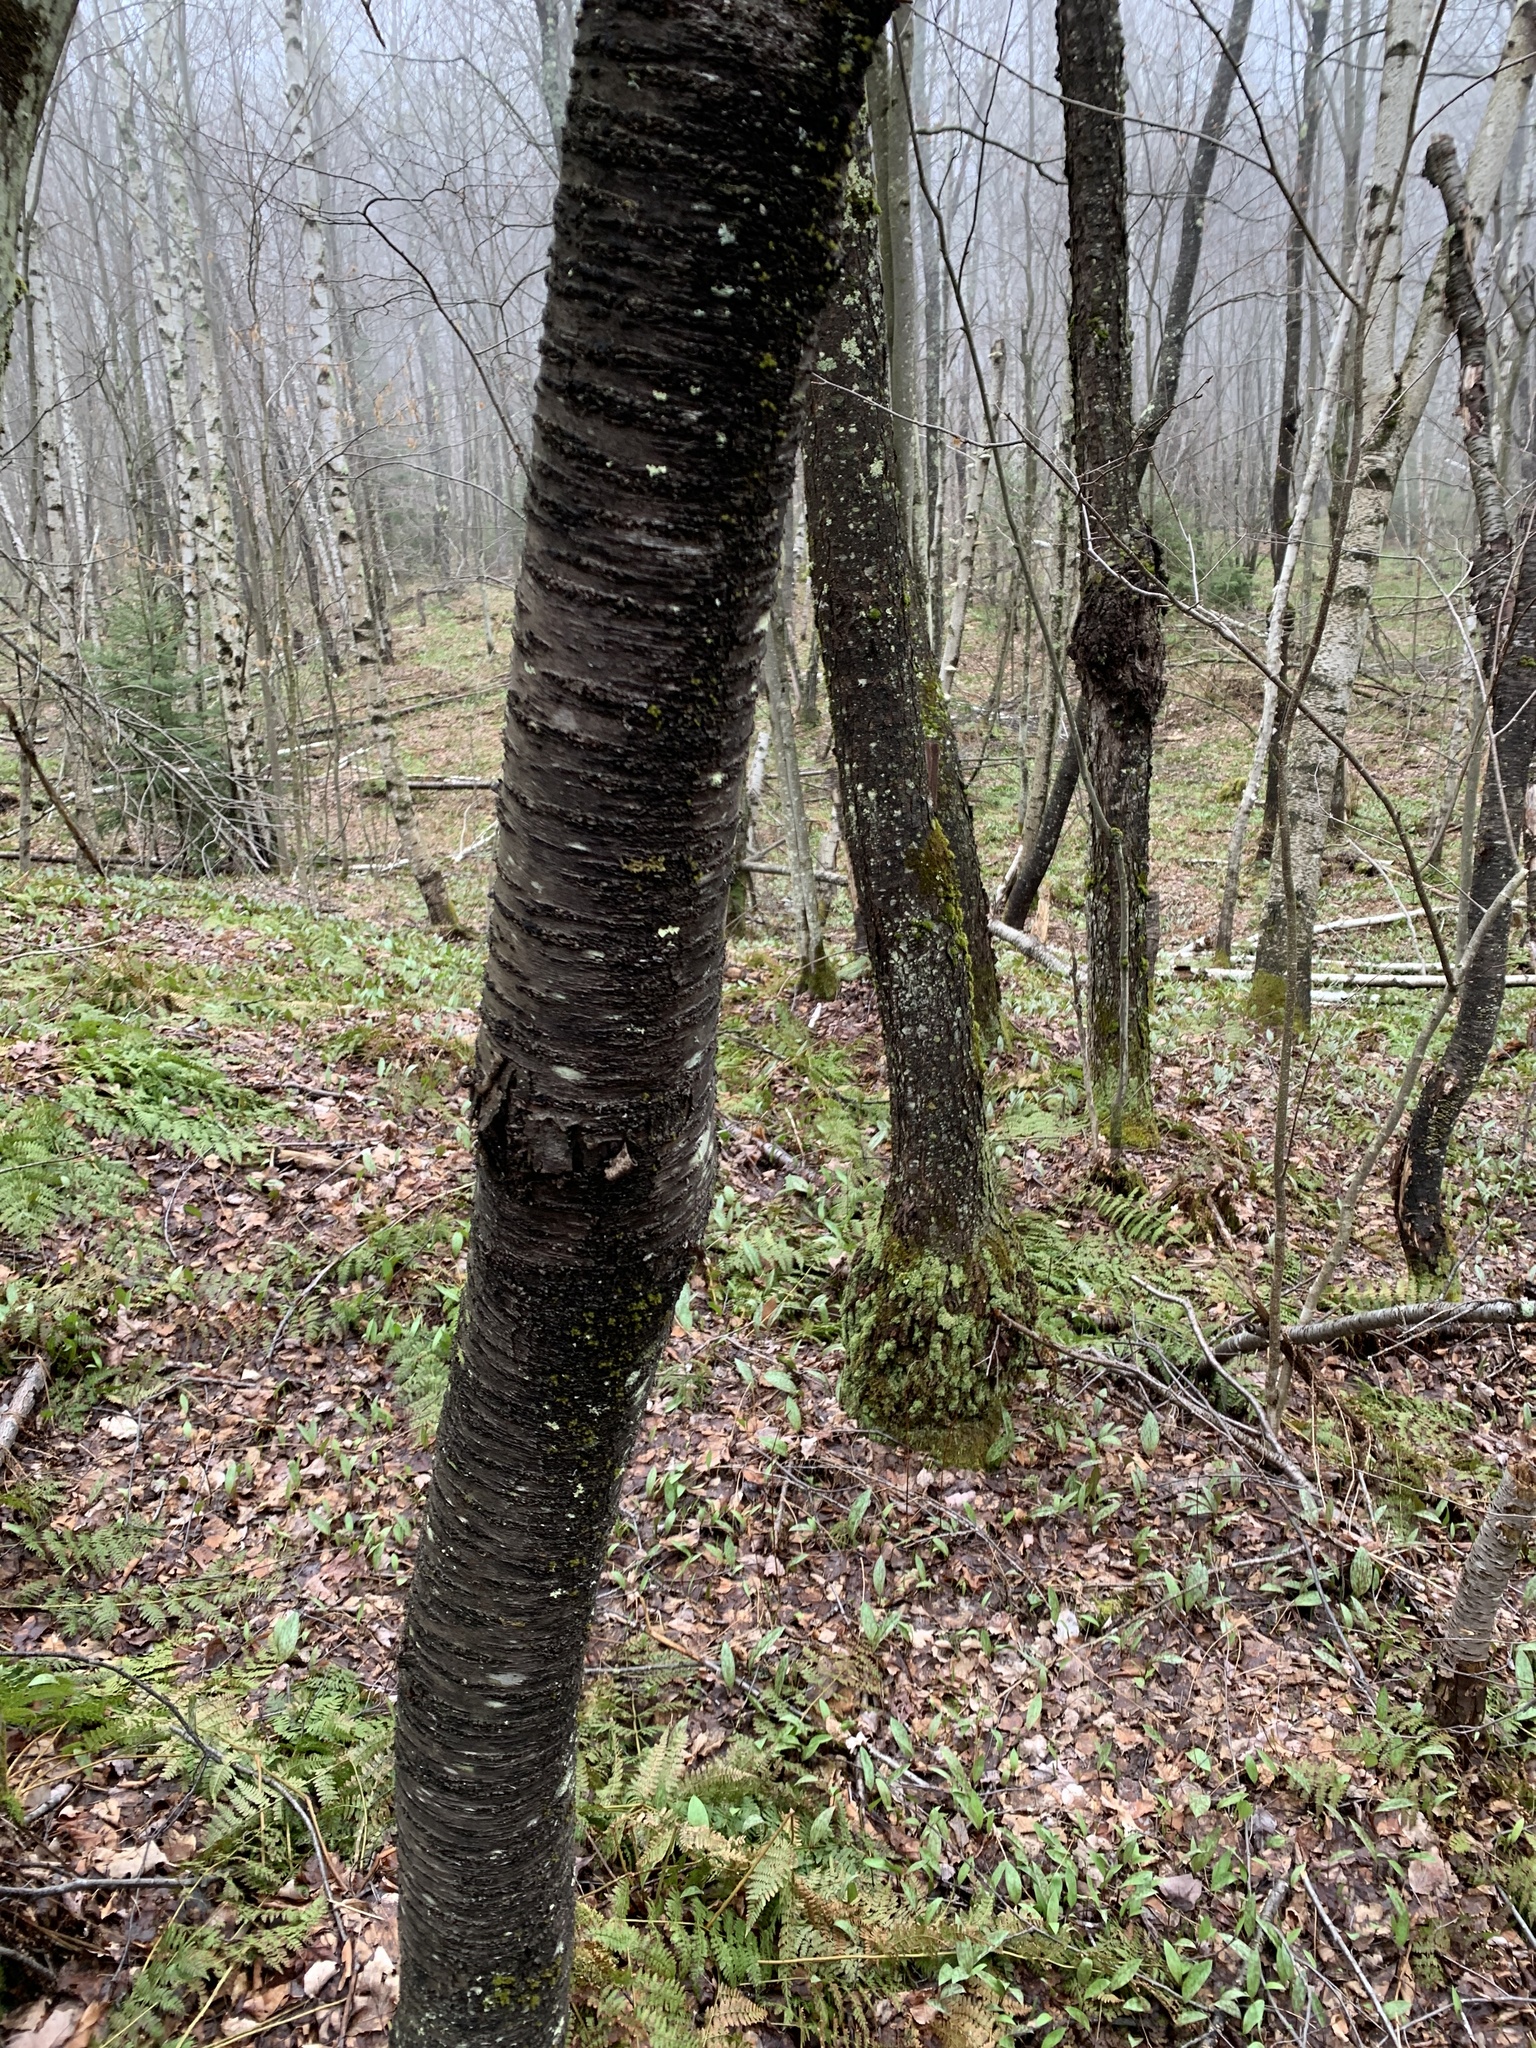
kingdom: Plantae
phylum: Tracheophyta
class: Magnoliopsida
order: Rosales
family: Rosaceae
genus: Prunus
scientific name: Prunus pensylvanica
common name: Pin cherry
